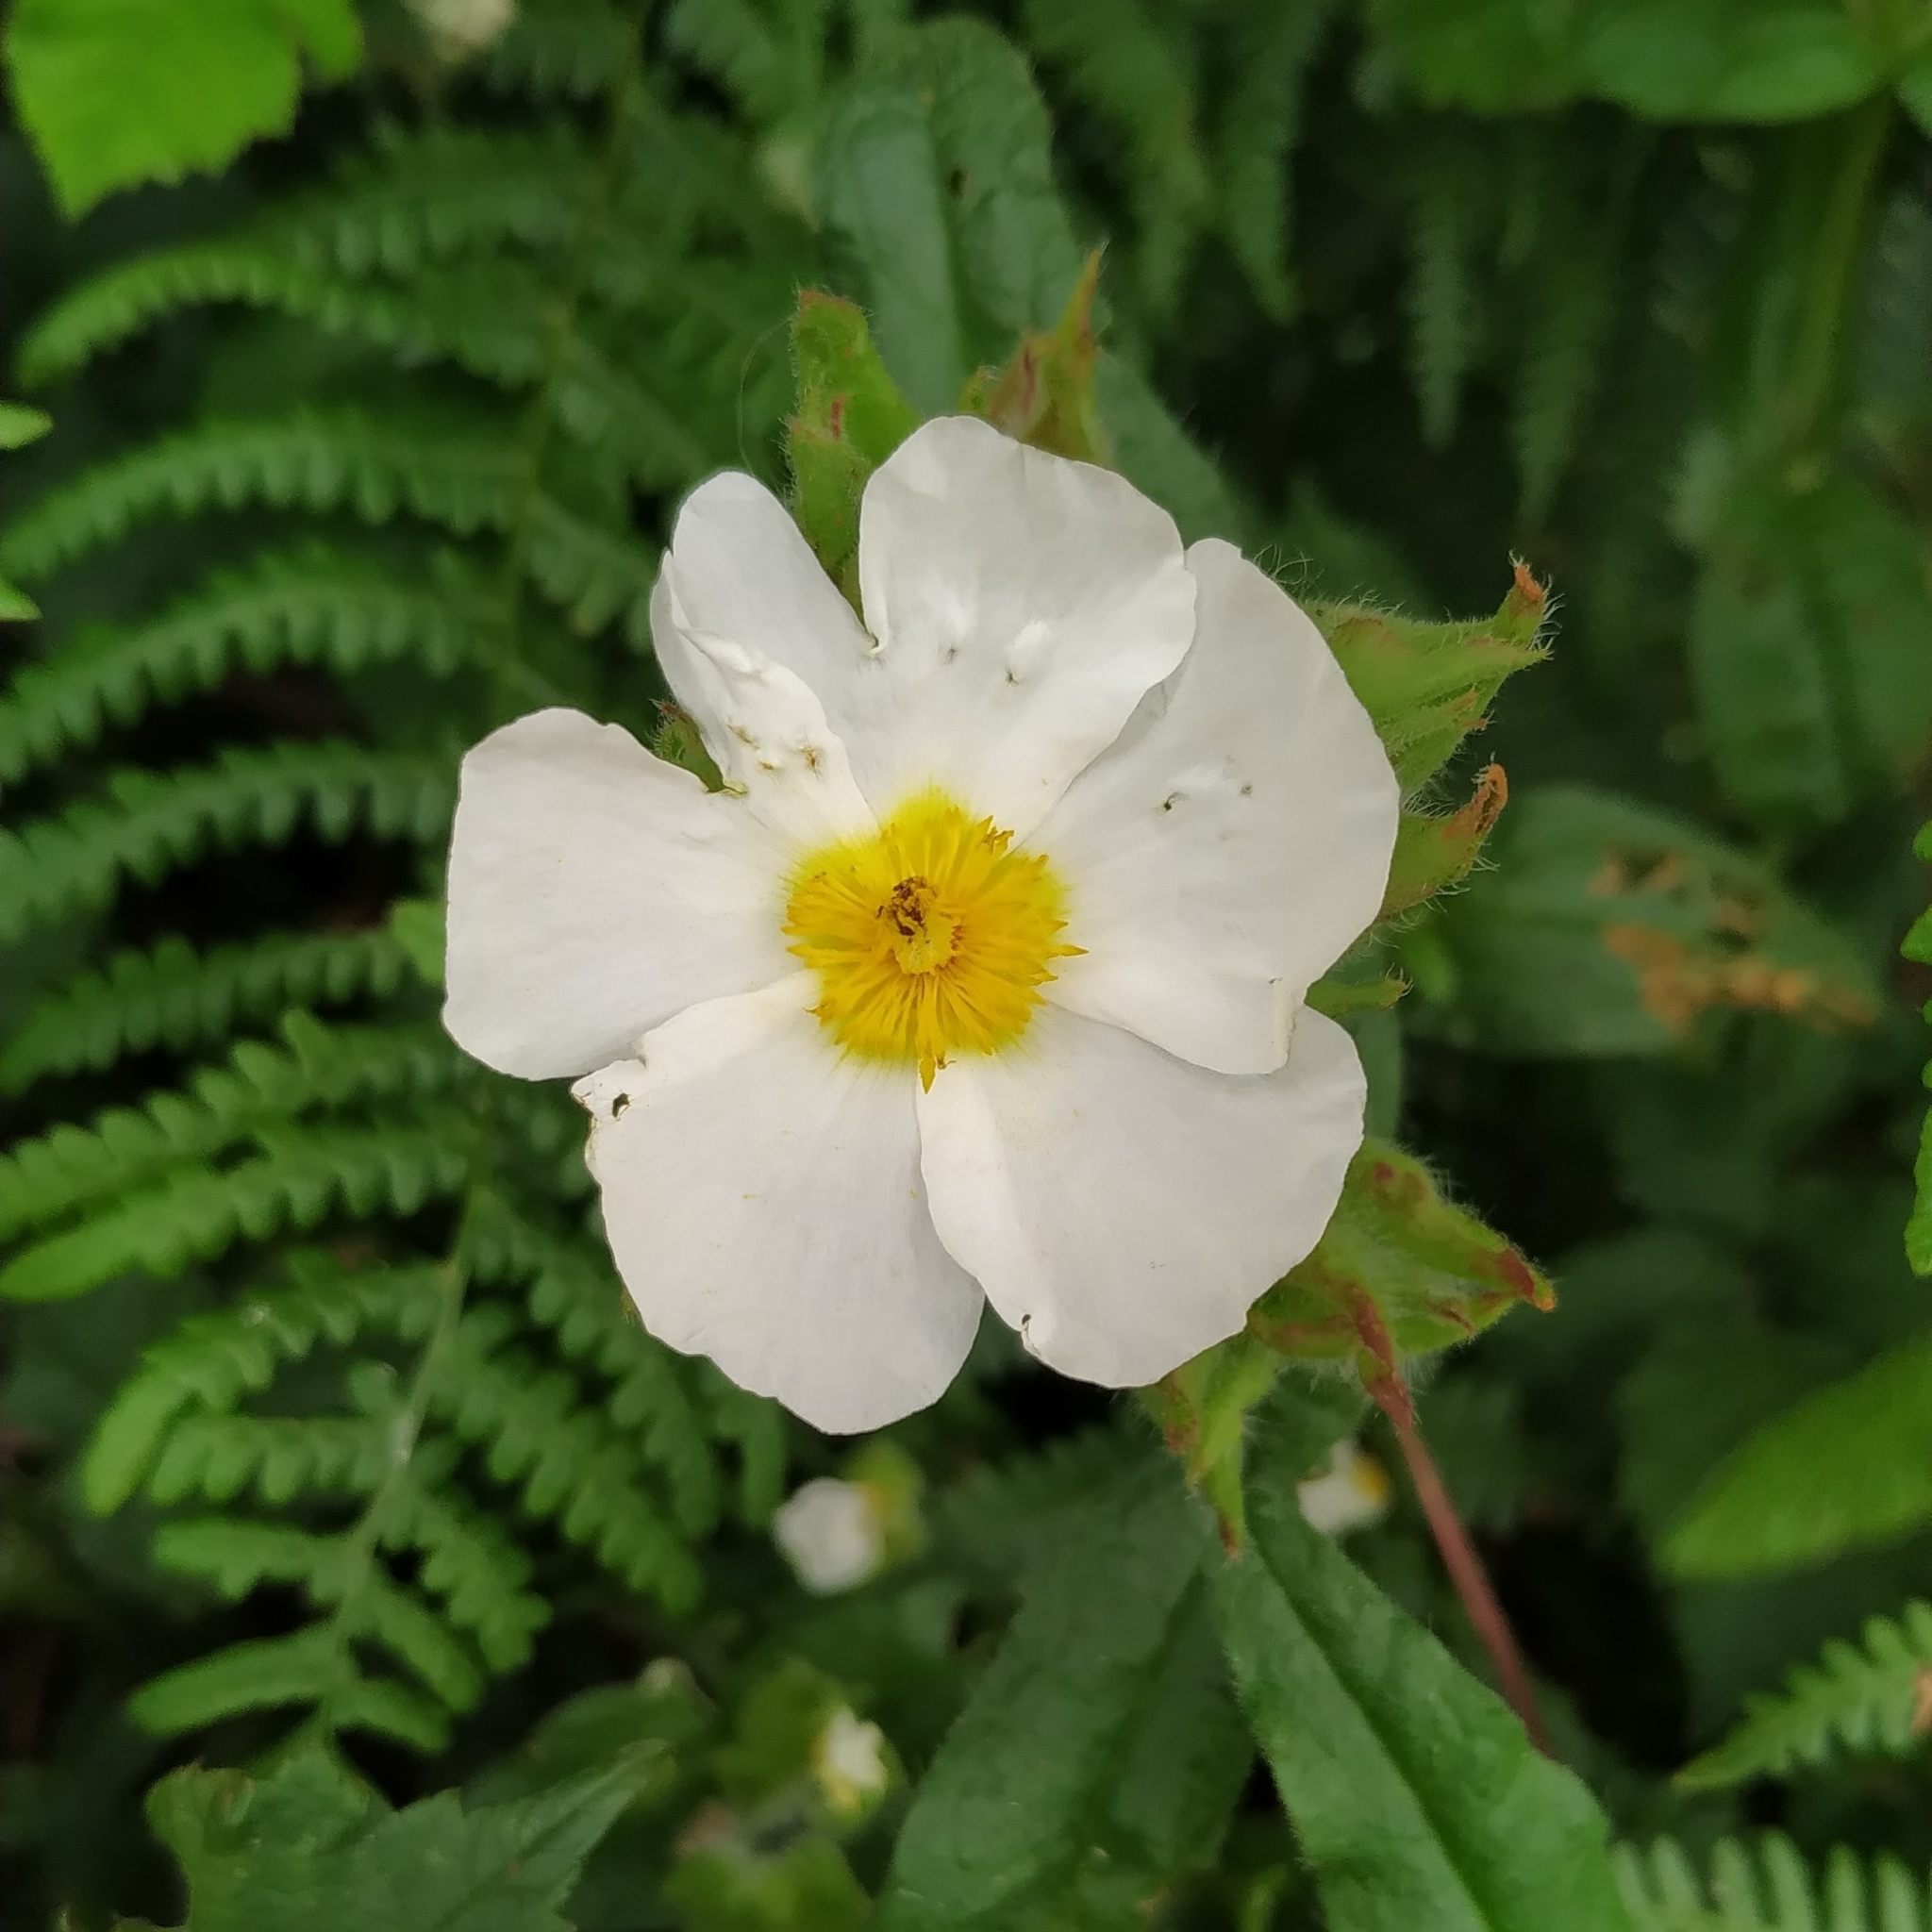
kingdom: Plantae
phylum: Tracheophyta
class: Magnoliopsida
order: Malvales
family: Cistaceae
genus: Cistus
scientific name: Cistus inflatus
